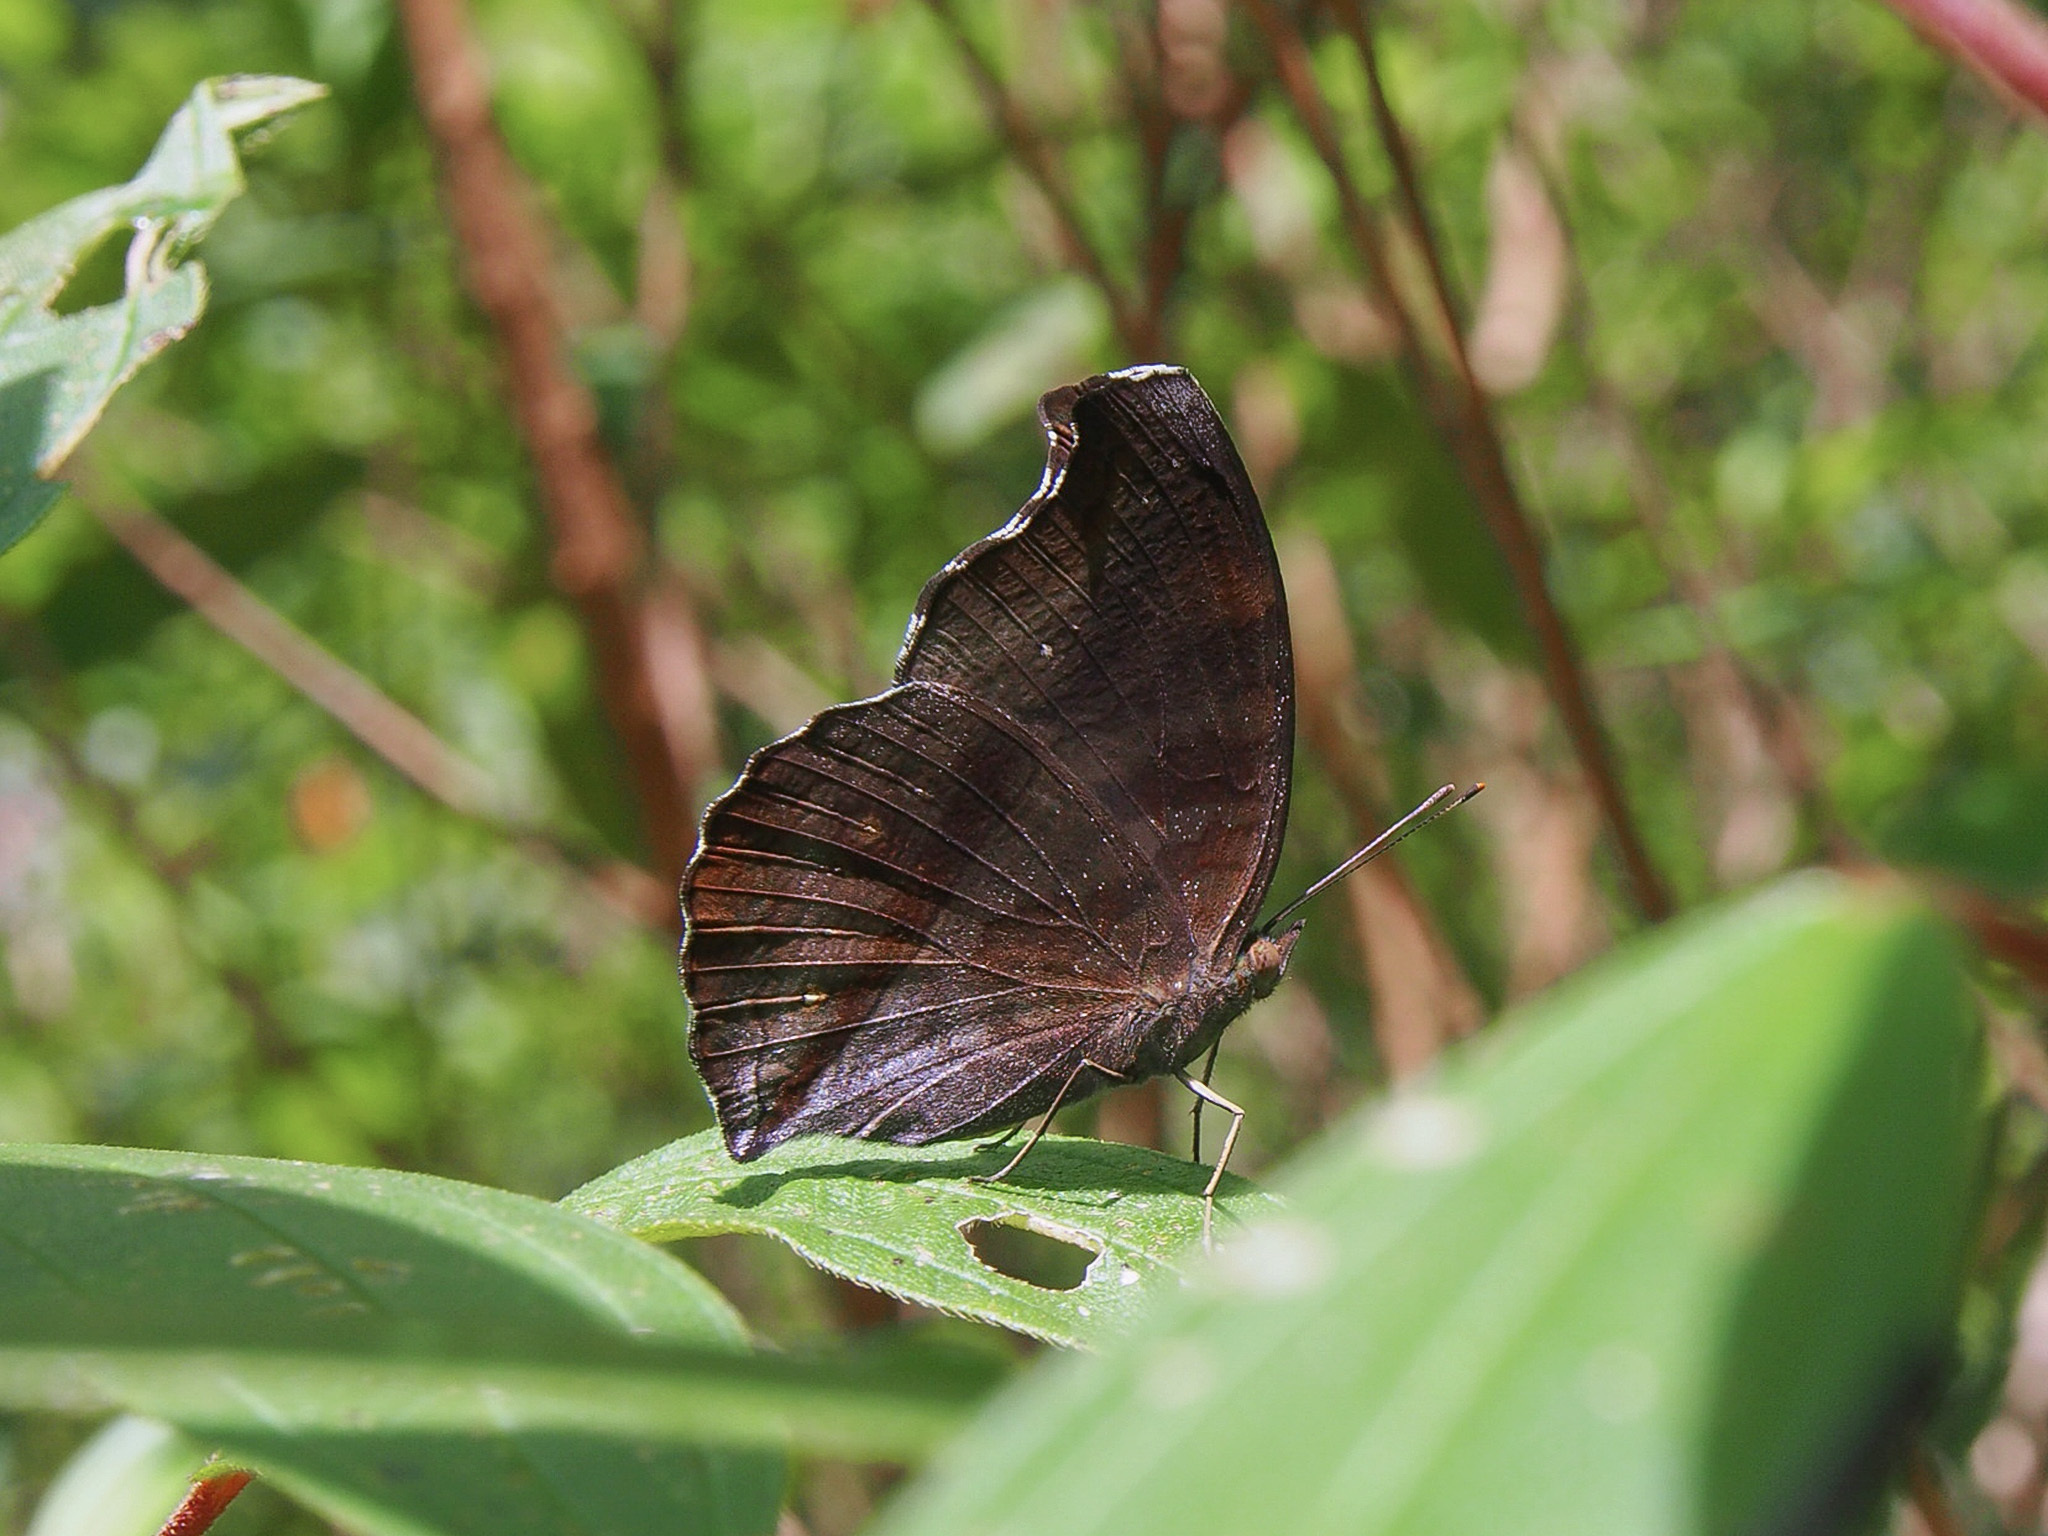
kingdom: Animalia
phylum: Arthropoda
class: Insecta
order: Lepidoptera
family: Nymphalidae
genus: Junonia
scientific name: Junonia iphita
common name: Chocolate pansy
